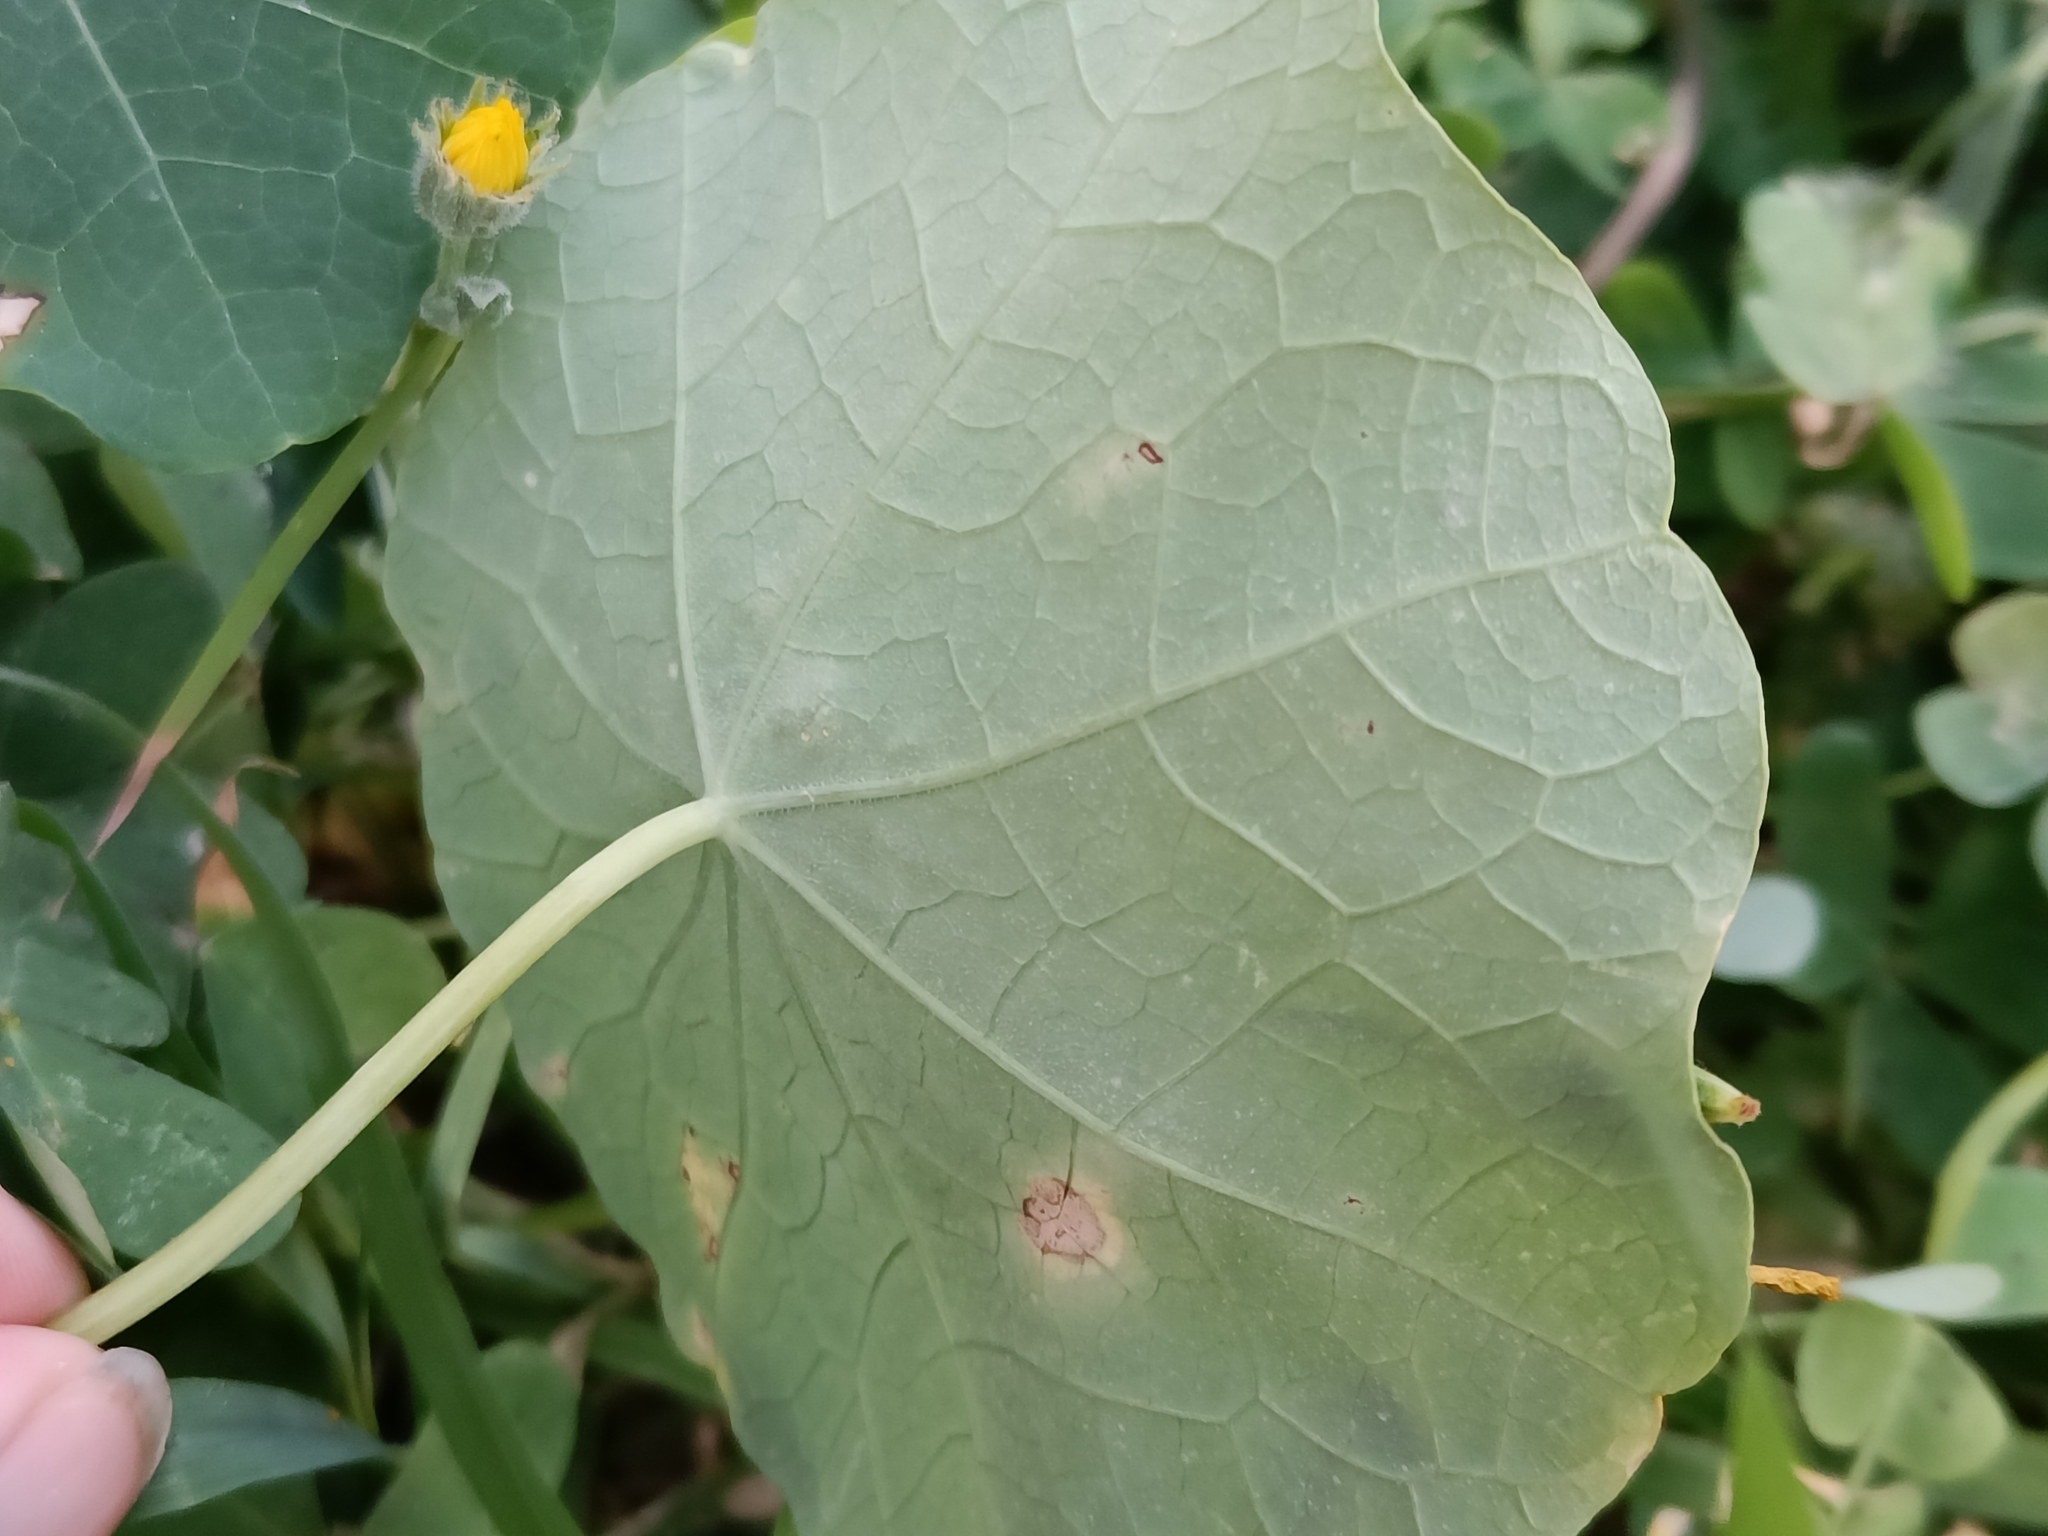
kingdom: Plantae
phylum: Tracheophyta
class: Magnoliopsida
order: Brassicales
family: Tropaeolaceae
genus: Tropaeolum
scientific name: Tropaeolum majus
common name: Nasturtium
